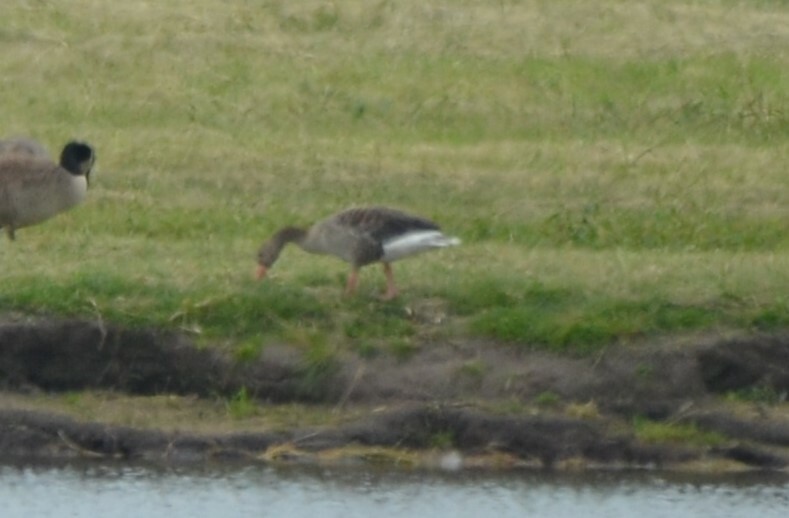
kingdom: Animalia
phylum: Chordata
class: Aves
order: Anseriformes
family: Anatidae
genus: Anser
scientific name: Anser anser
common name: Greylag goose
